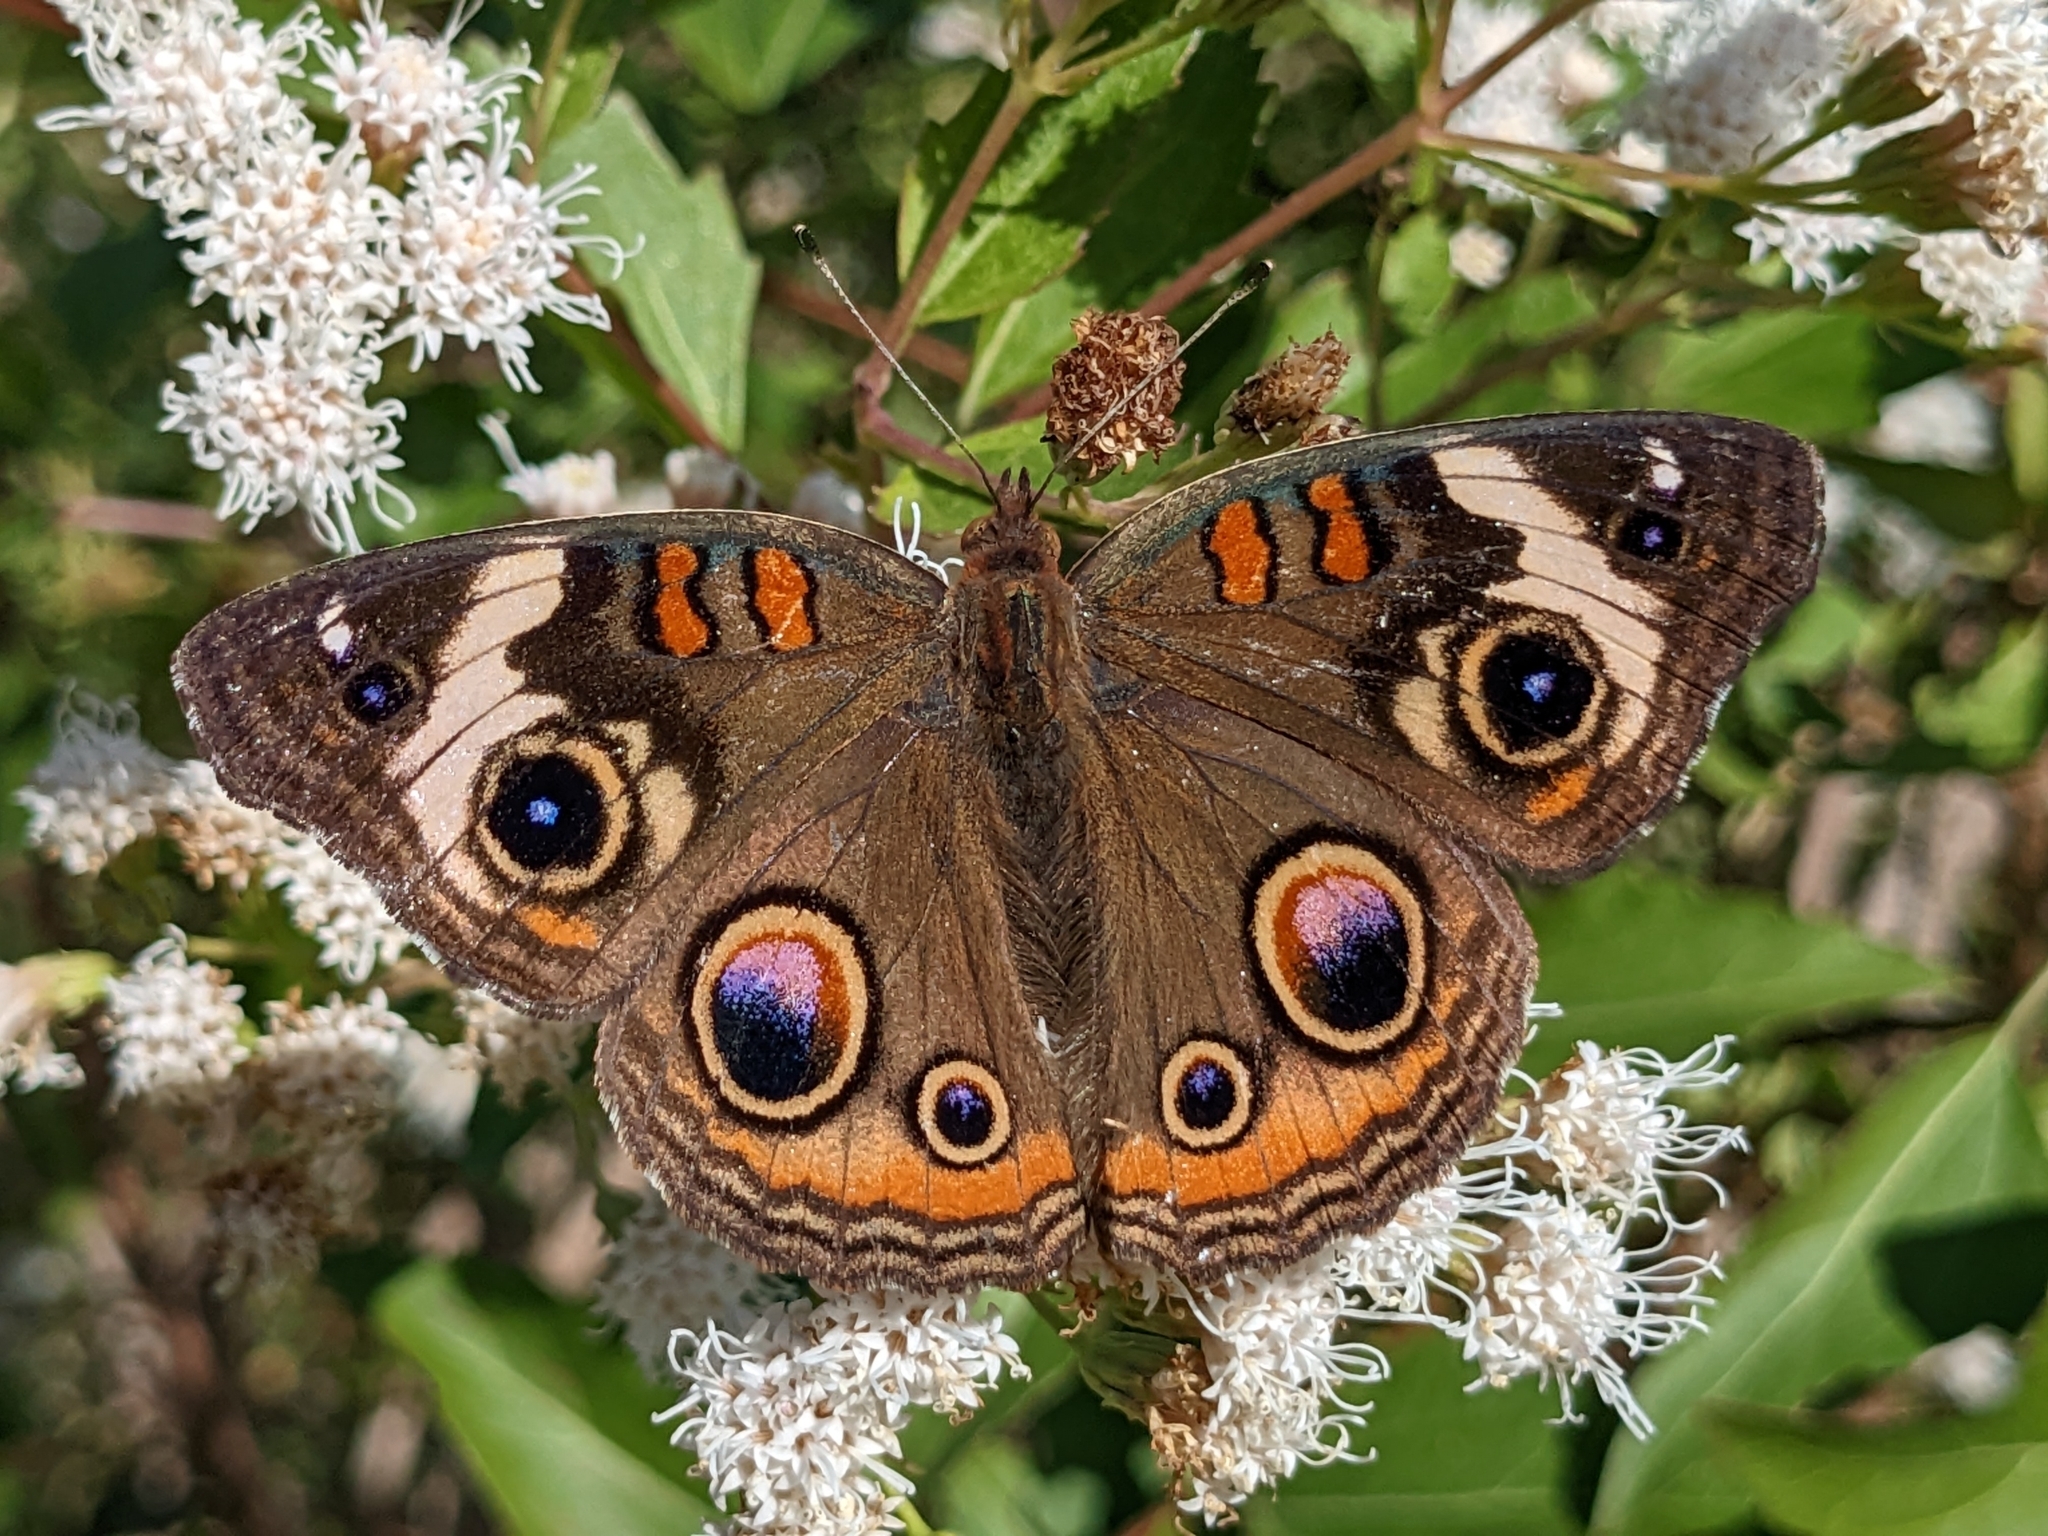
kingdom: Animalia
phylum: Arthropoda
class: Insecta
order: Lepidoptera
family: Nymphalidae
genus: Junonia
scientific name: Junonia coenia
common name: Common buckeye
